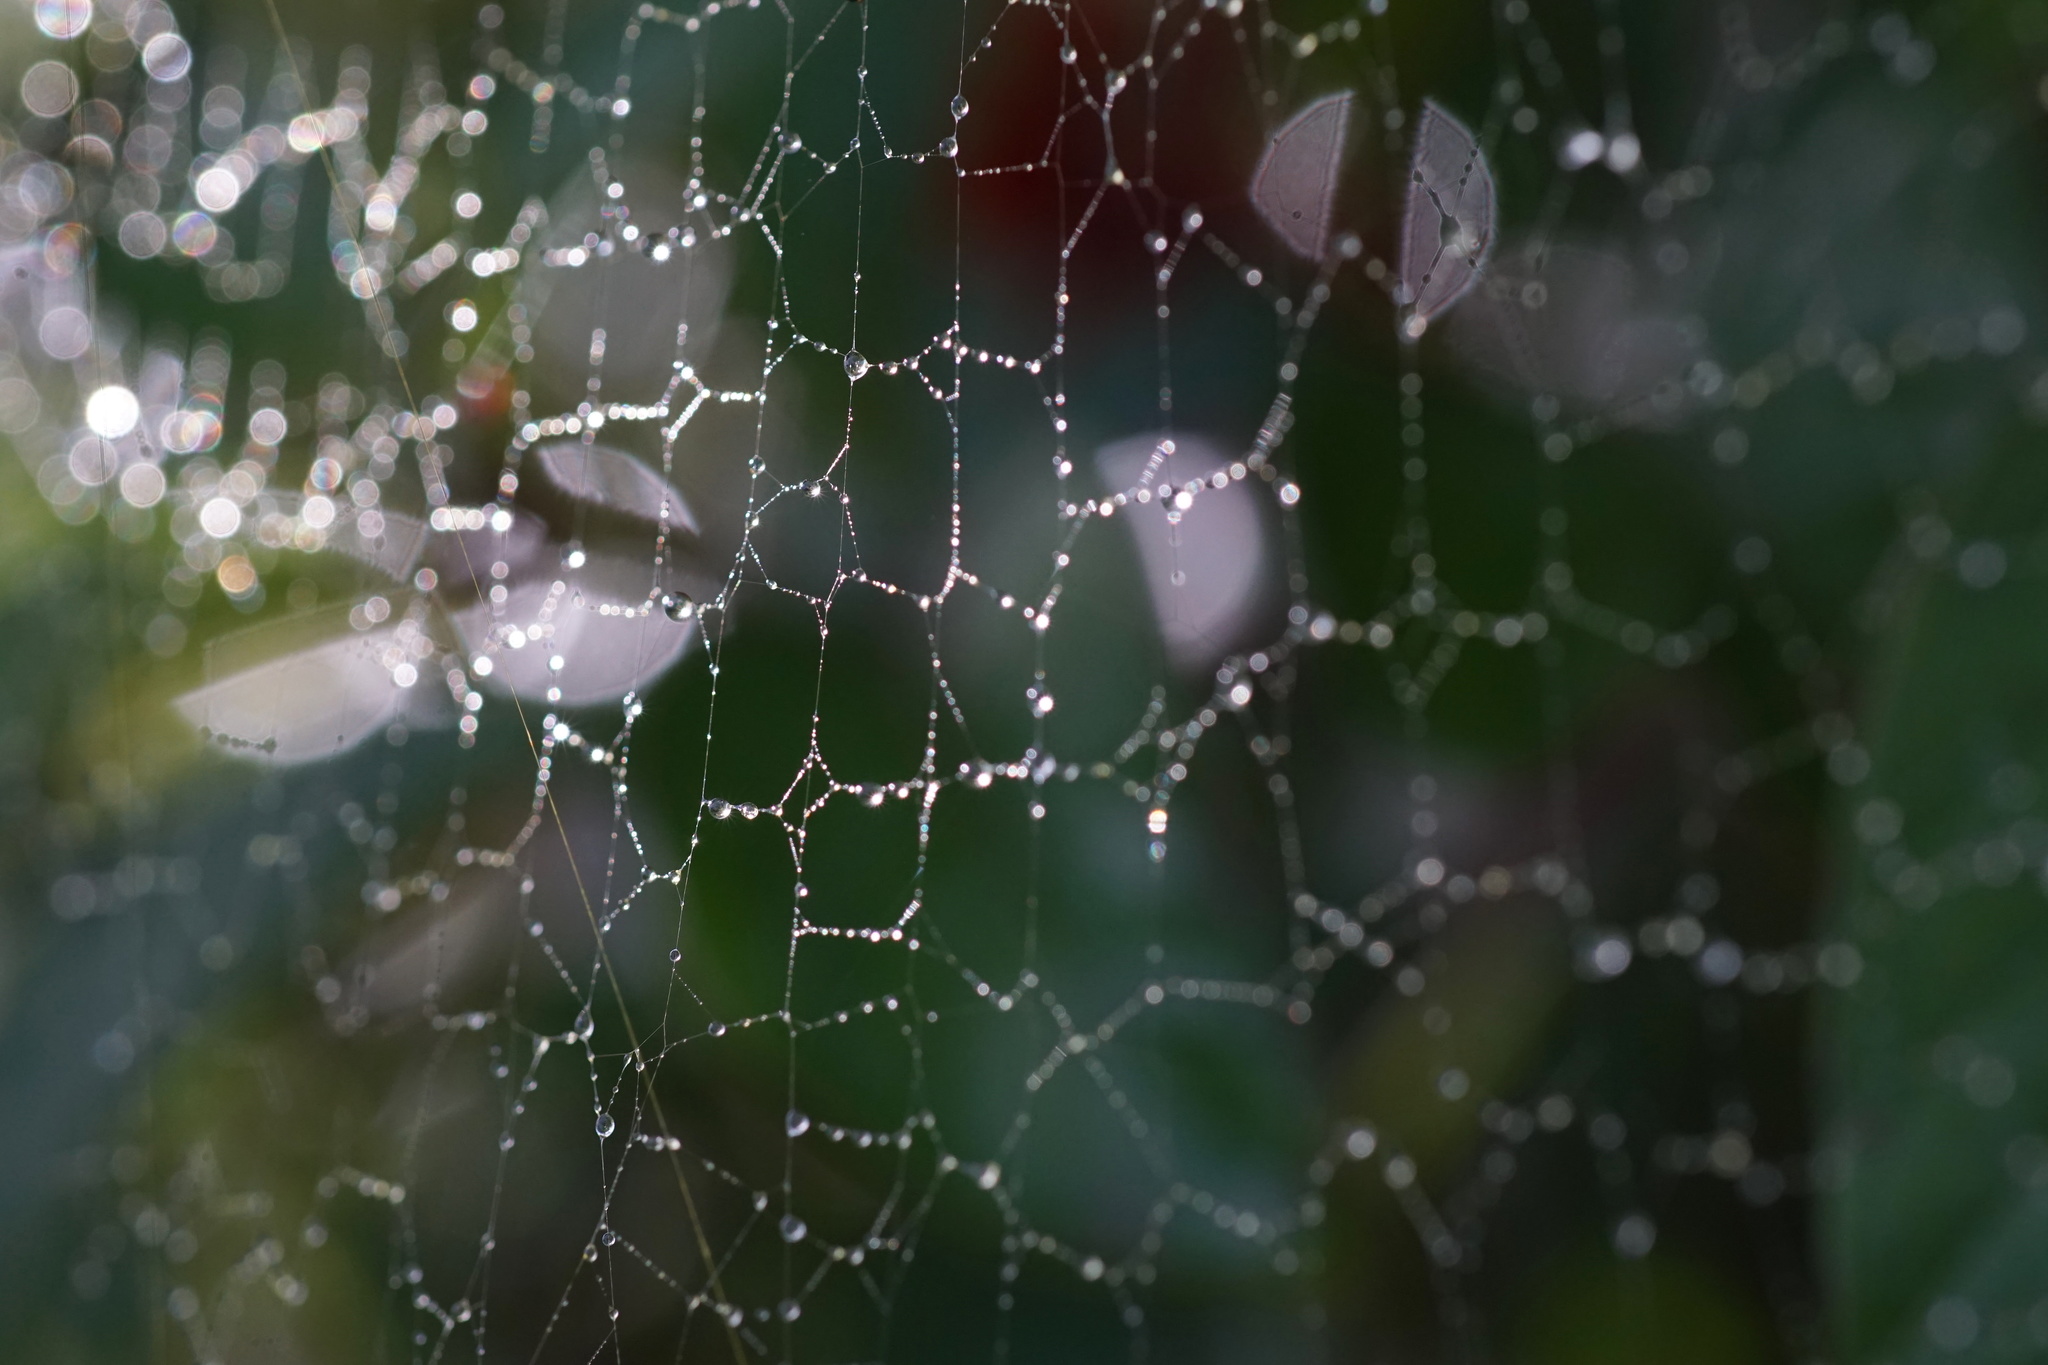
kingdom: Animalia
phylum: Arthropoda
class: Arachnida
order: Araneae
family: Araneidae
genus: Trichonephila
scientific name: Trichonephila clavipes
